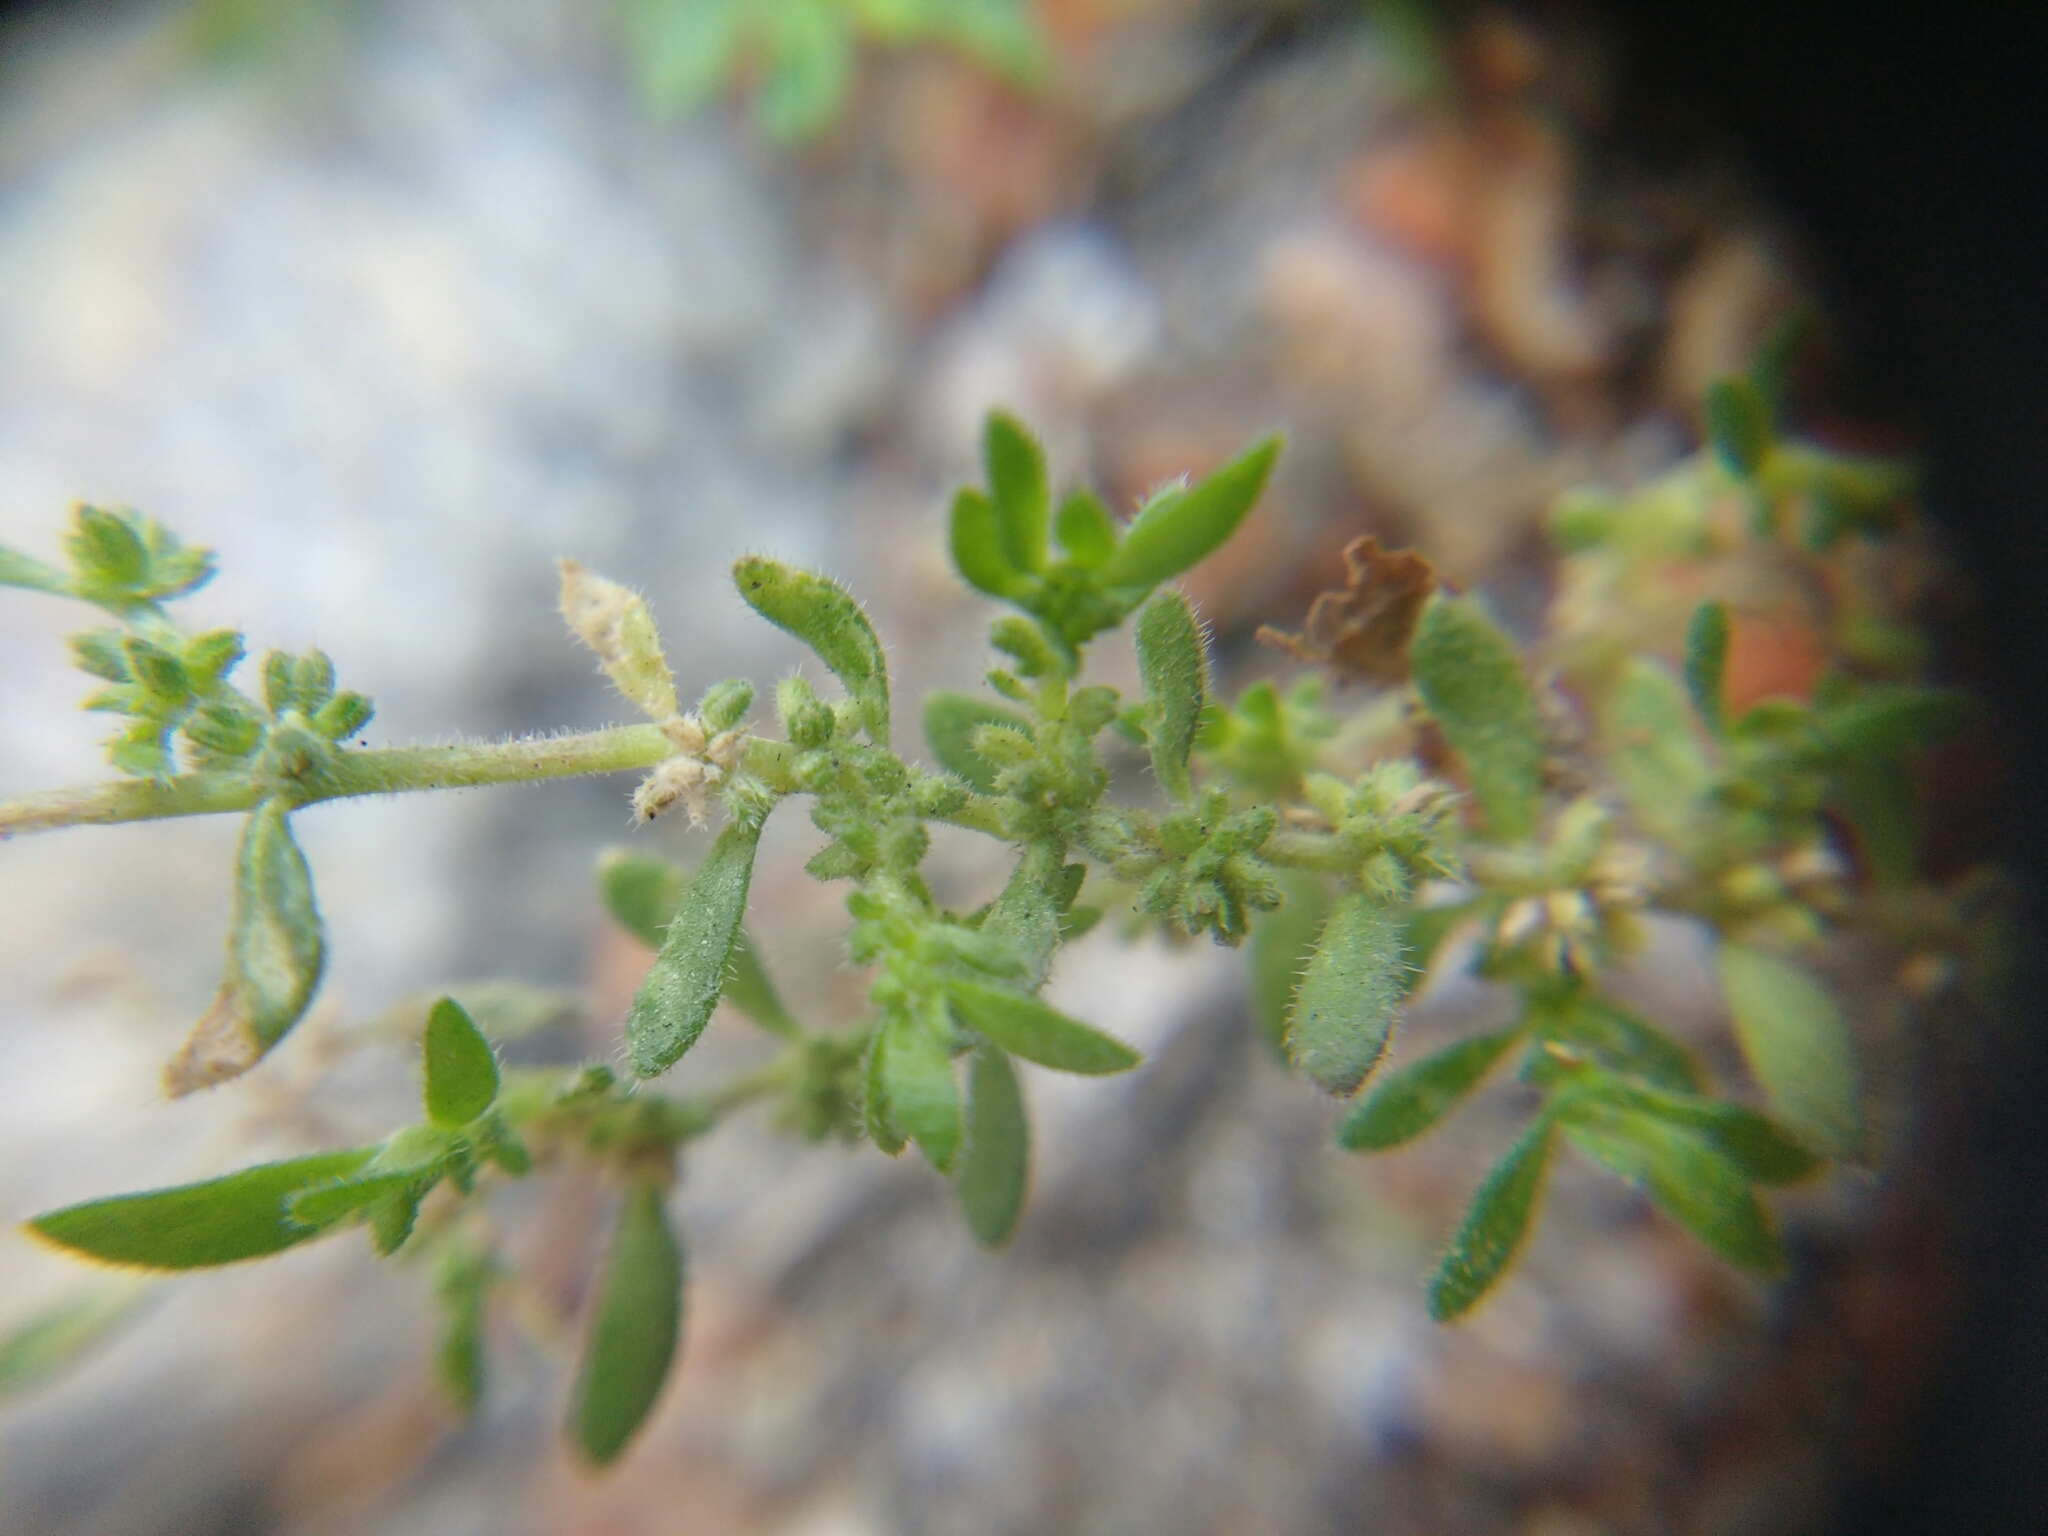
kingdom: Plantae
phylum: Tracheophyta
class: Magnoliopsida
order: Caryophyllales
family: Caryophyllaceae
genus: Herniaria
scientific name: Herniaria hirsuta
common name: Hairy rupturewort
